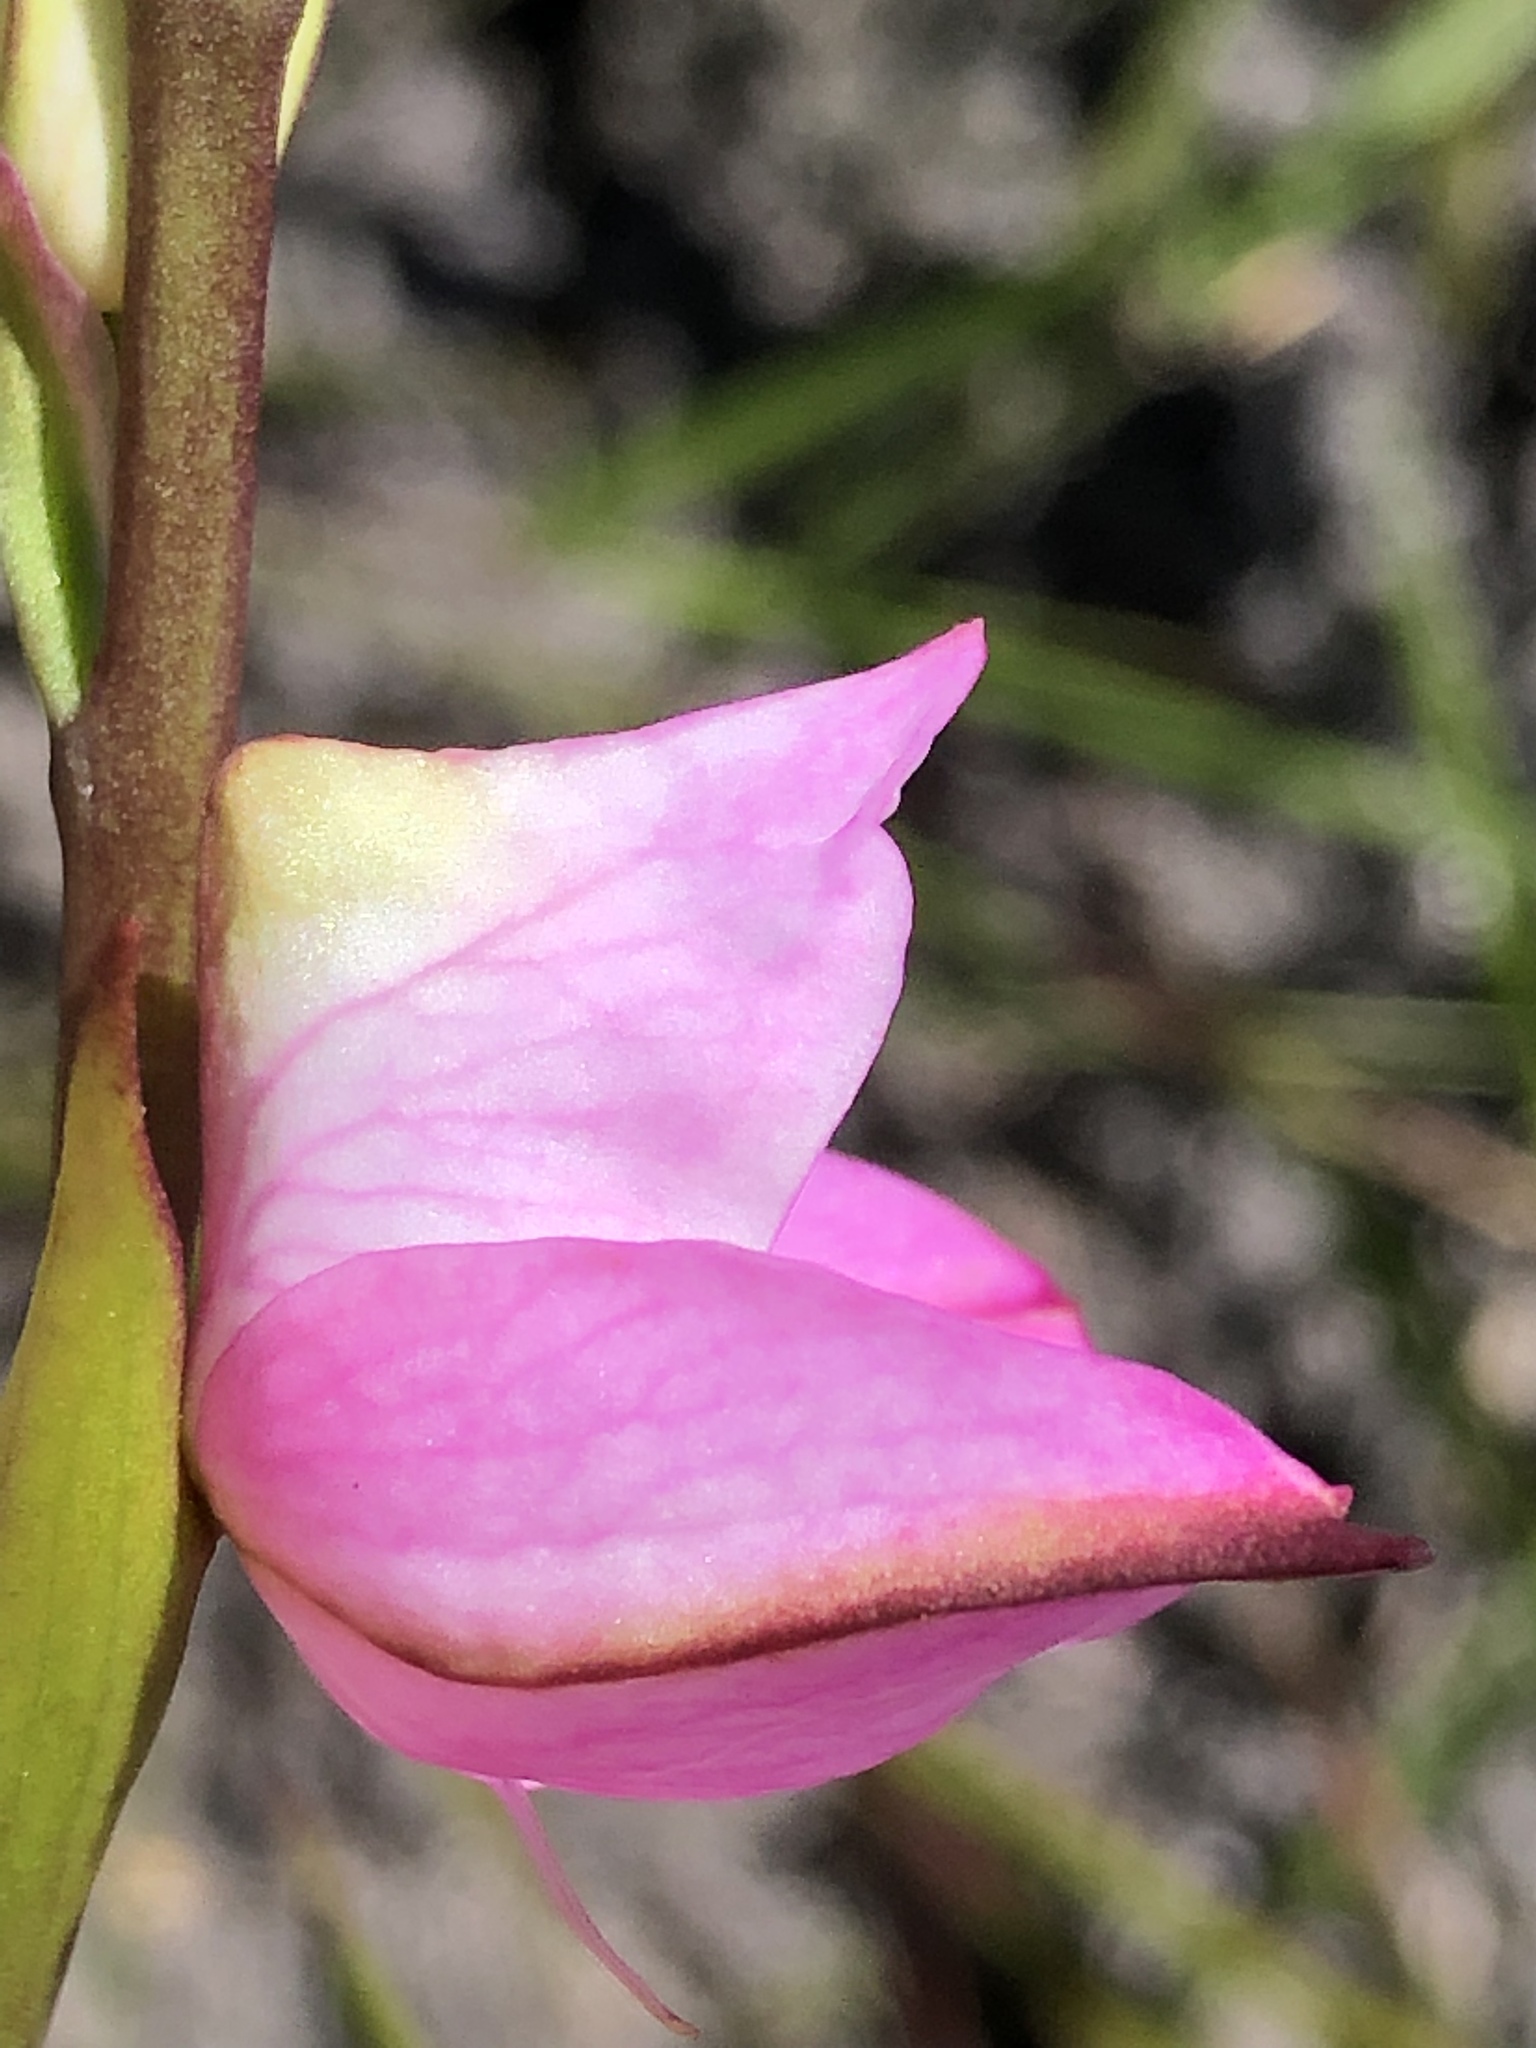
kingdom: Plantae
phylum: Tracheophyta
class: Liliopsida
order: Asparagales
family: Orchidaceae
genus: Disa
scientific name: Disa racemosa
